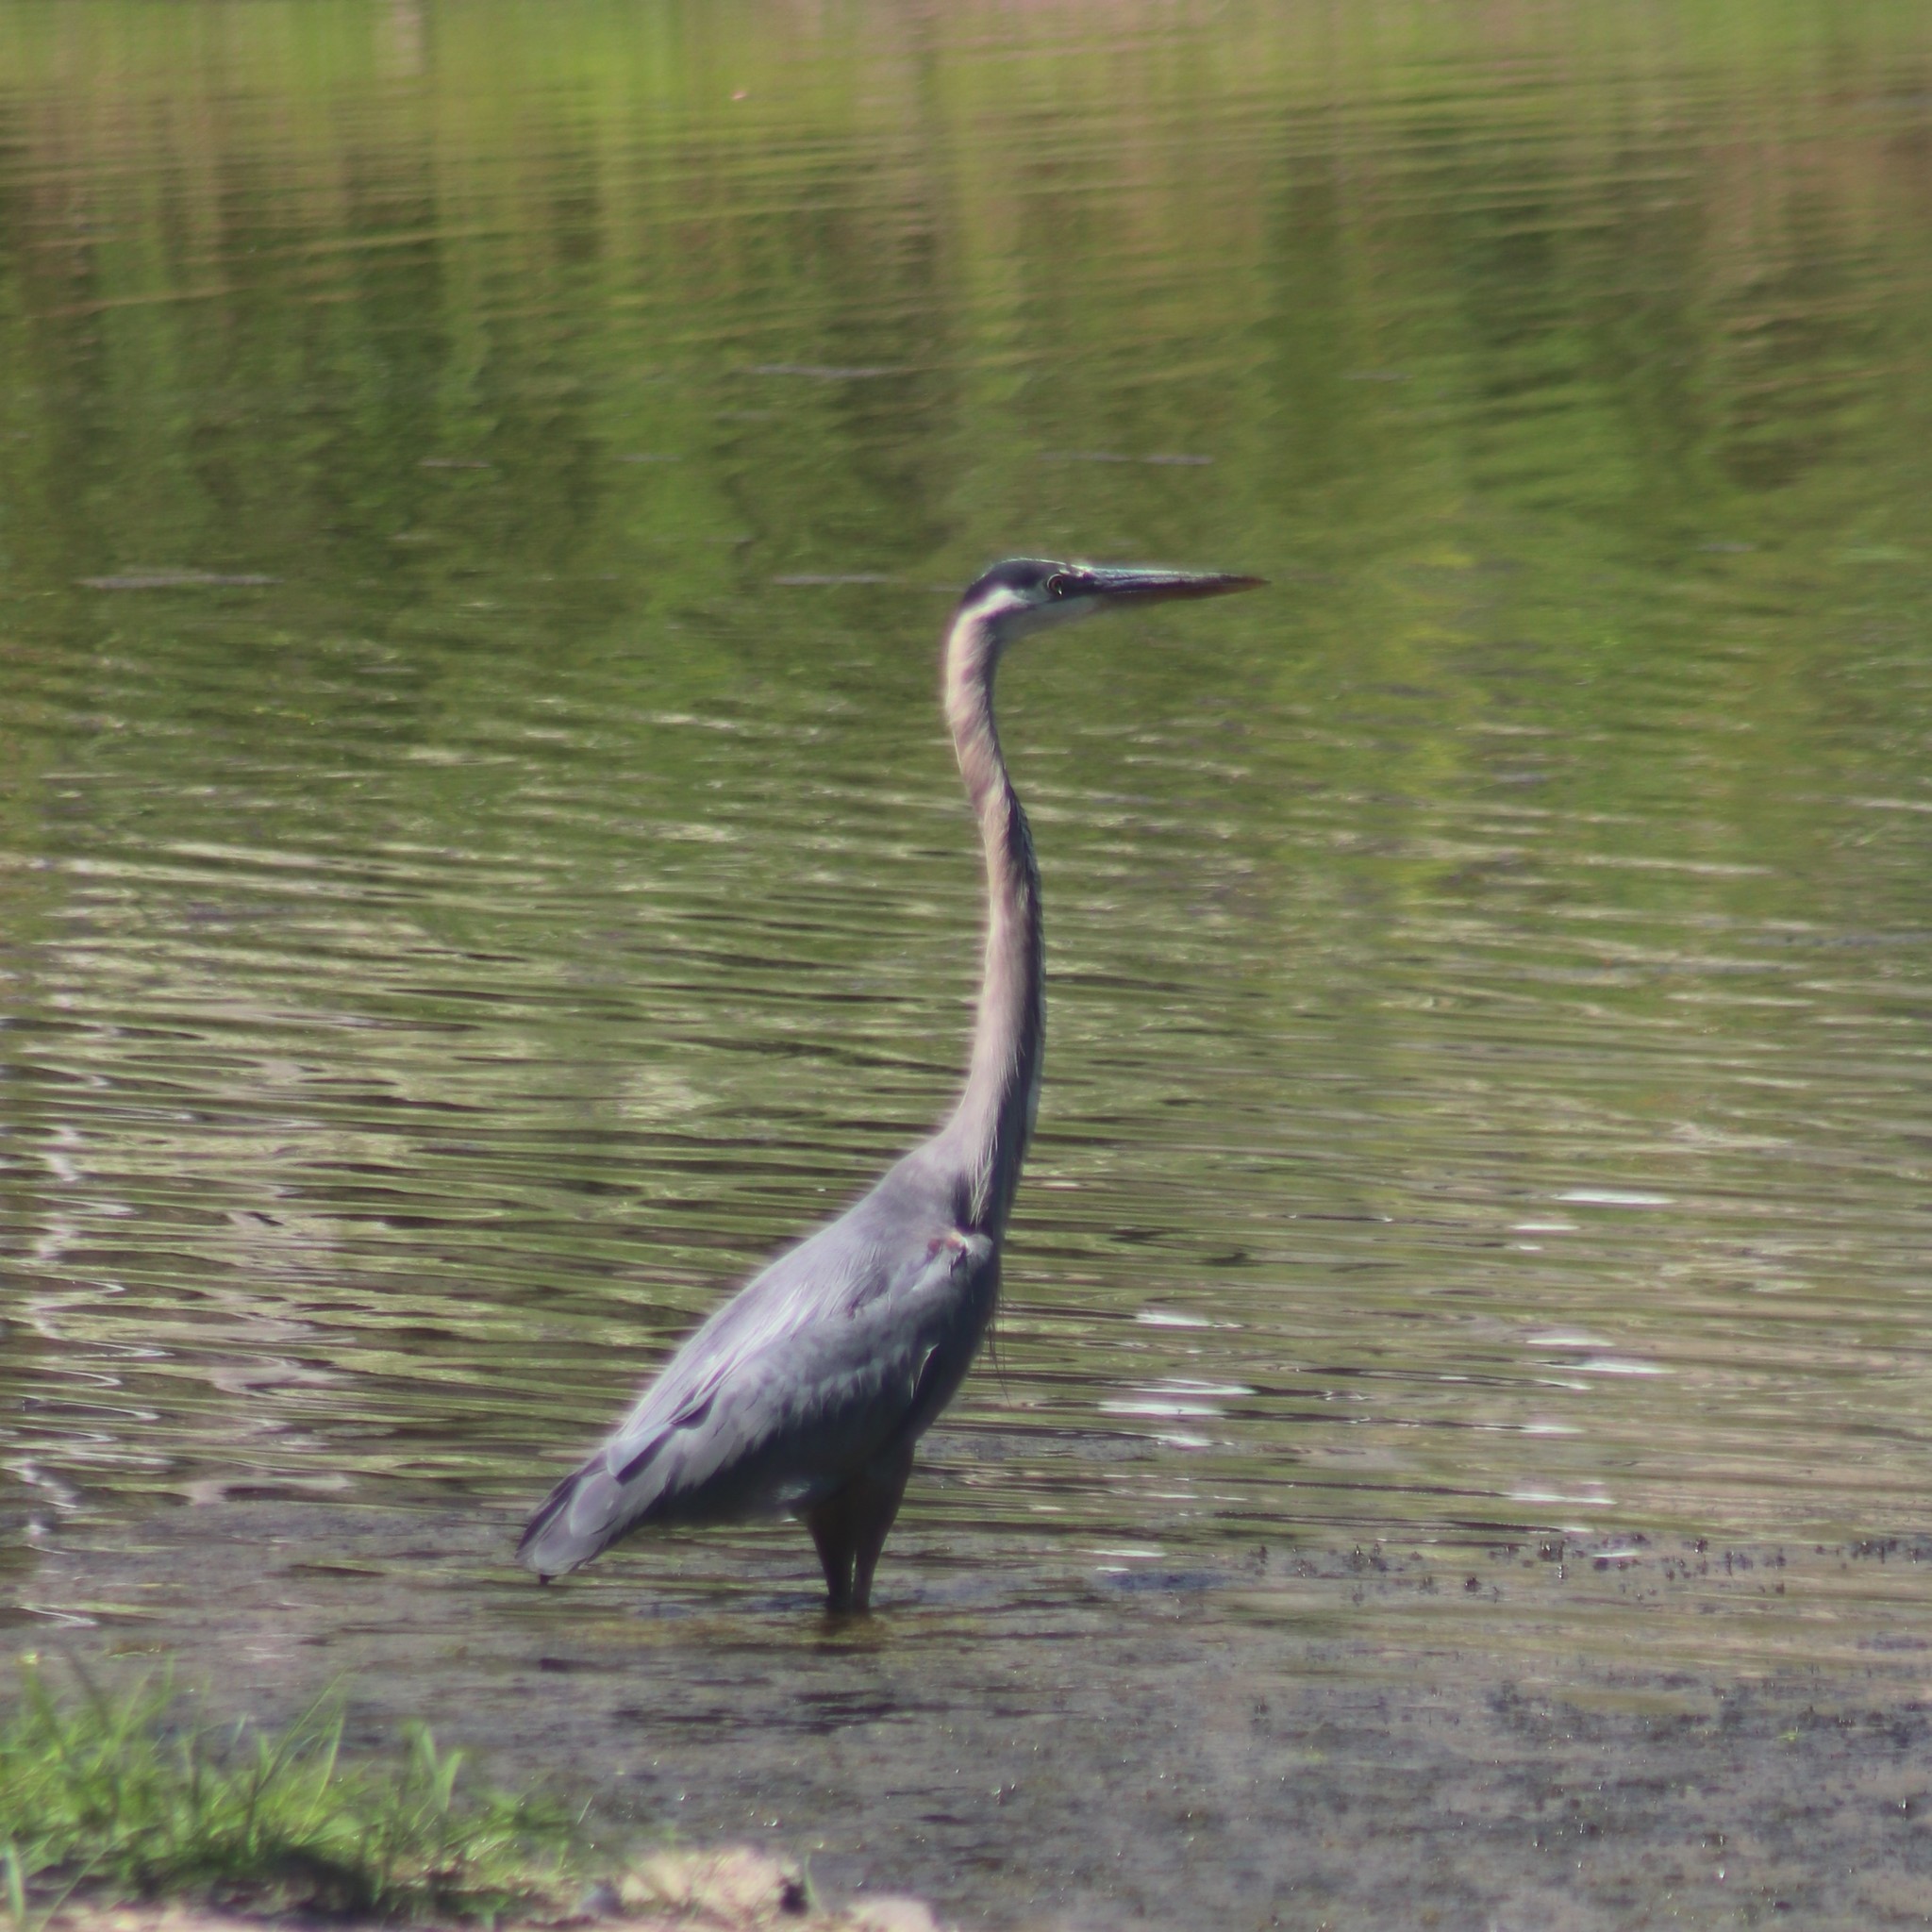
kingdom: Animalia
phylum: Chordata
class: Aves
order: Pelecaniformes
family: Ardeidae
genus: Ardea
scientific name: Ardea herodias
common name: Great blue heron
